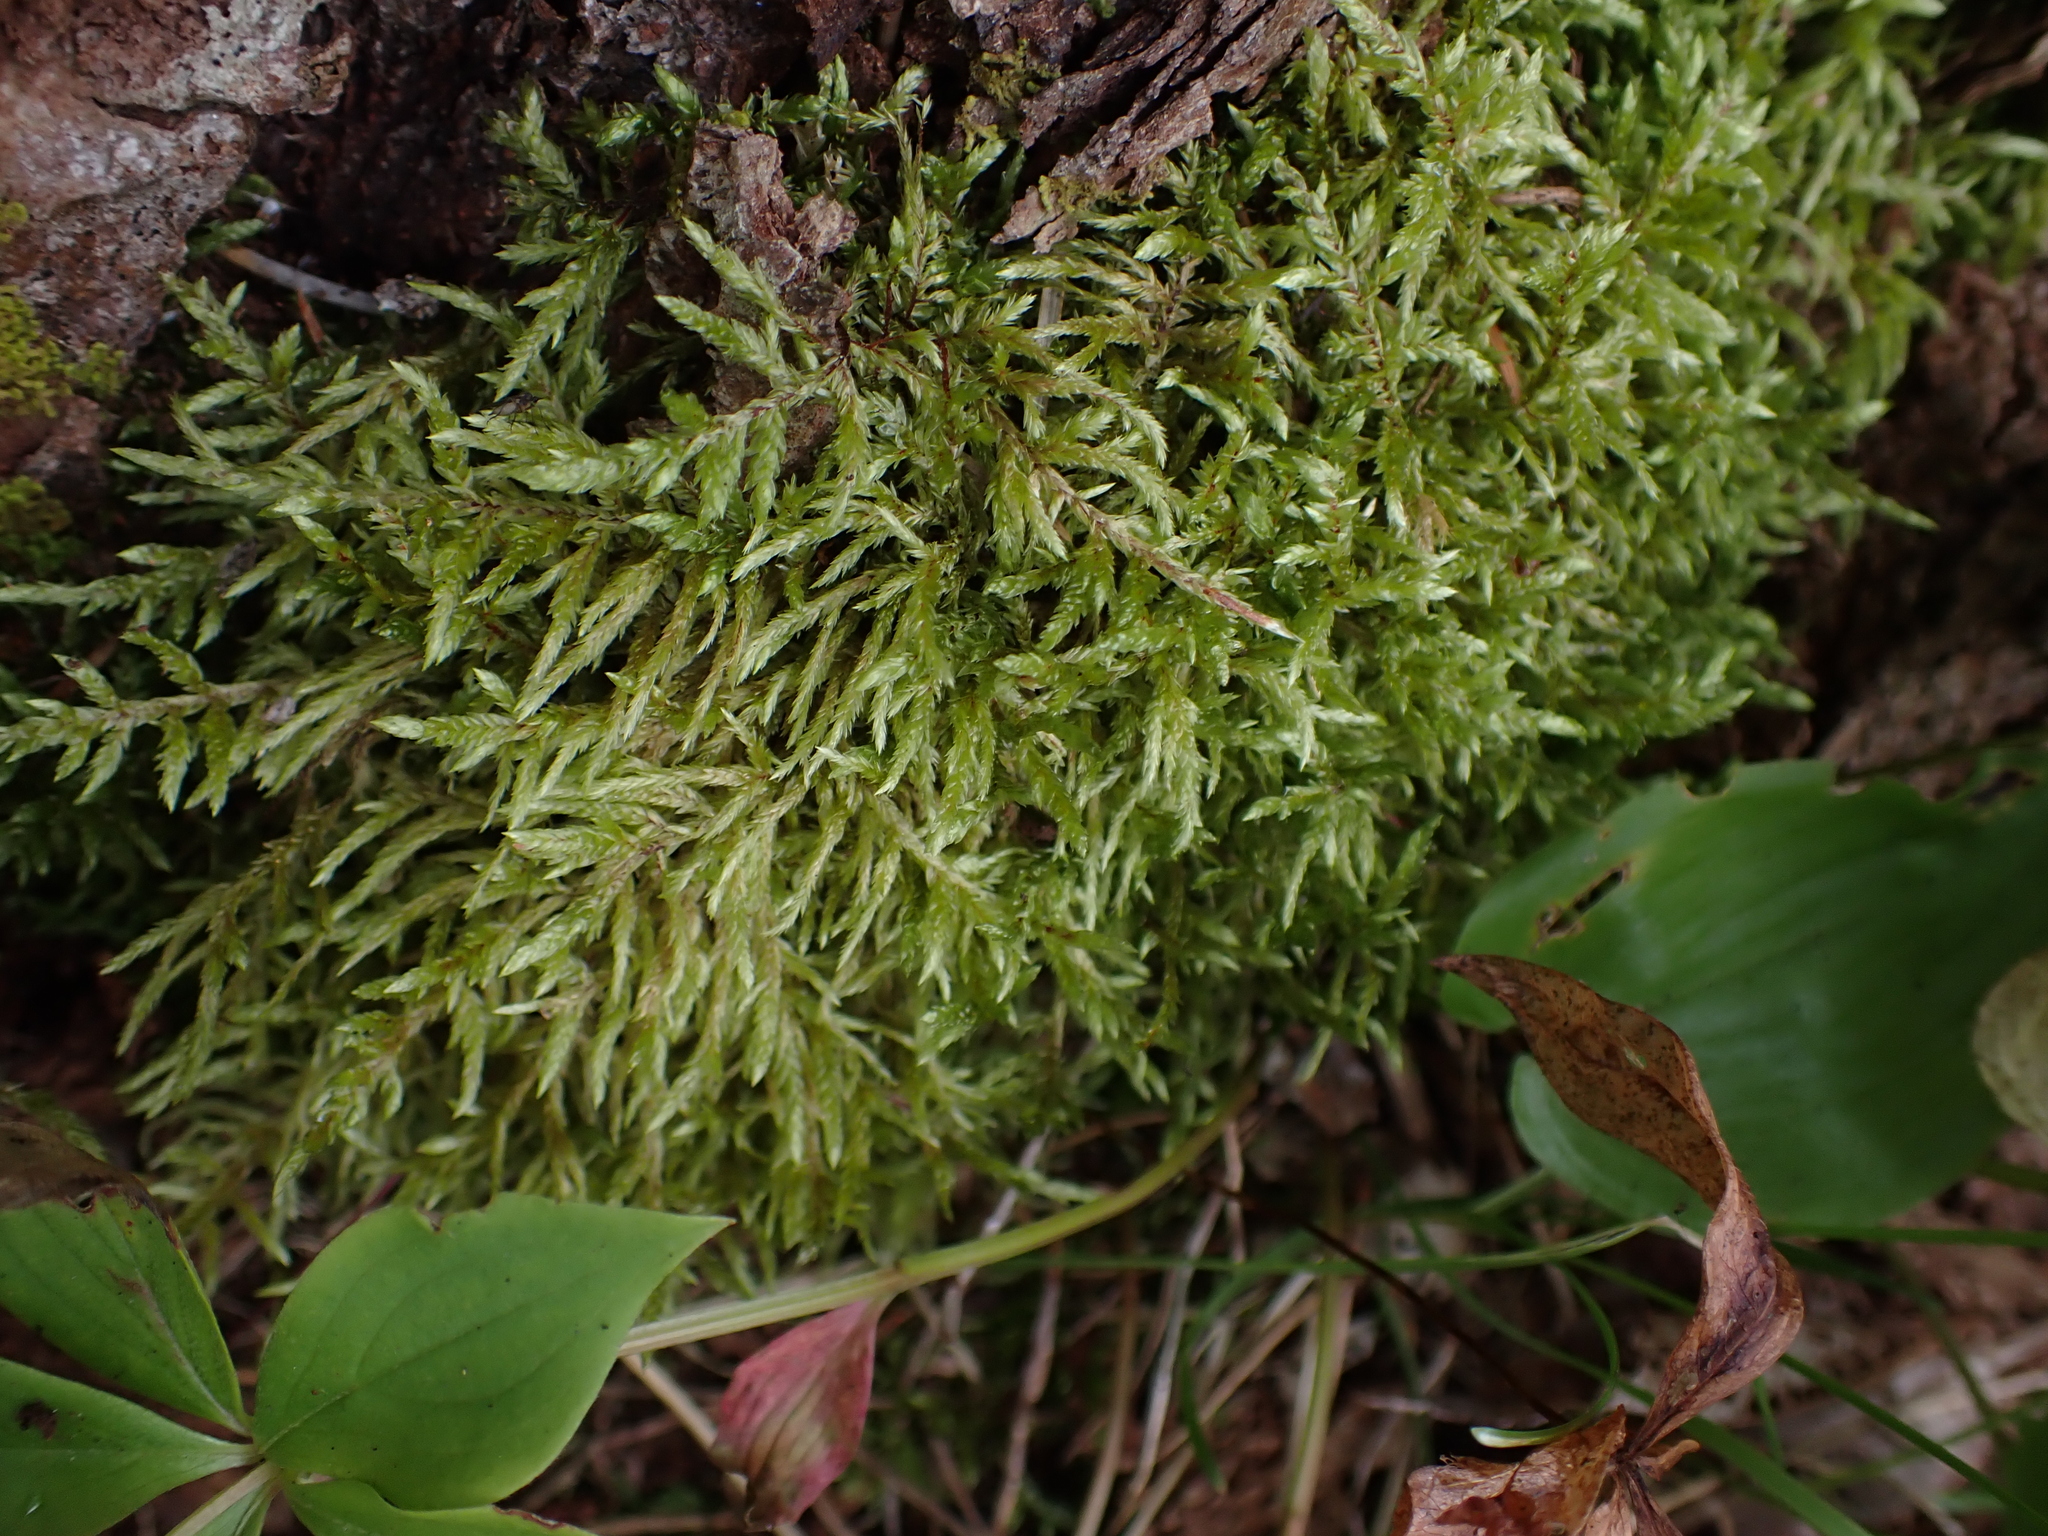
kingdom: Plantae
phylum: Bryophyta
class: Bryopsida
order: Hypnales
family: Hylocomiaceae
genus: Pleurozium
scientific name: Pleurozium schreberi
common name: Red-stemmed feather moss
